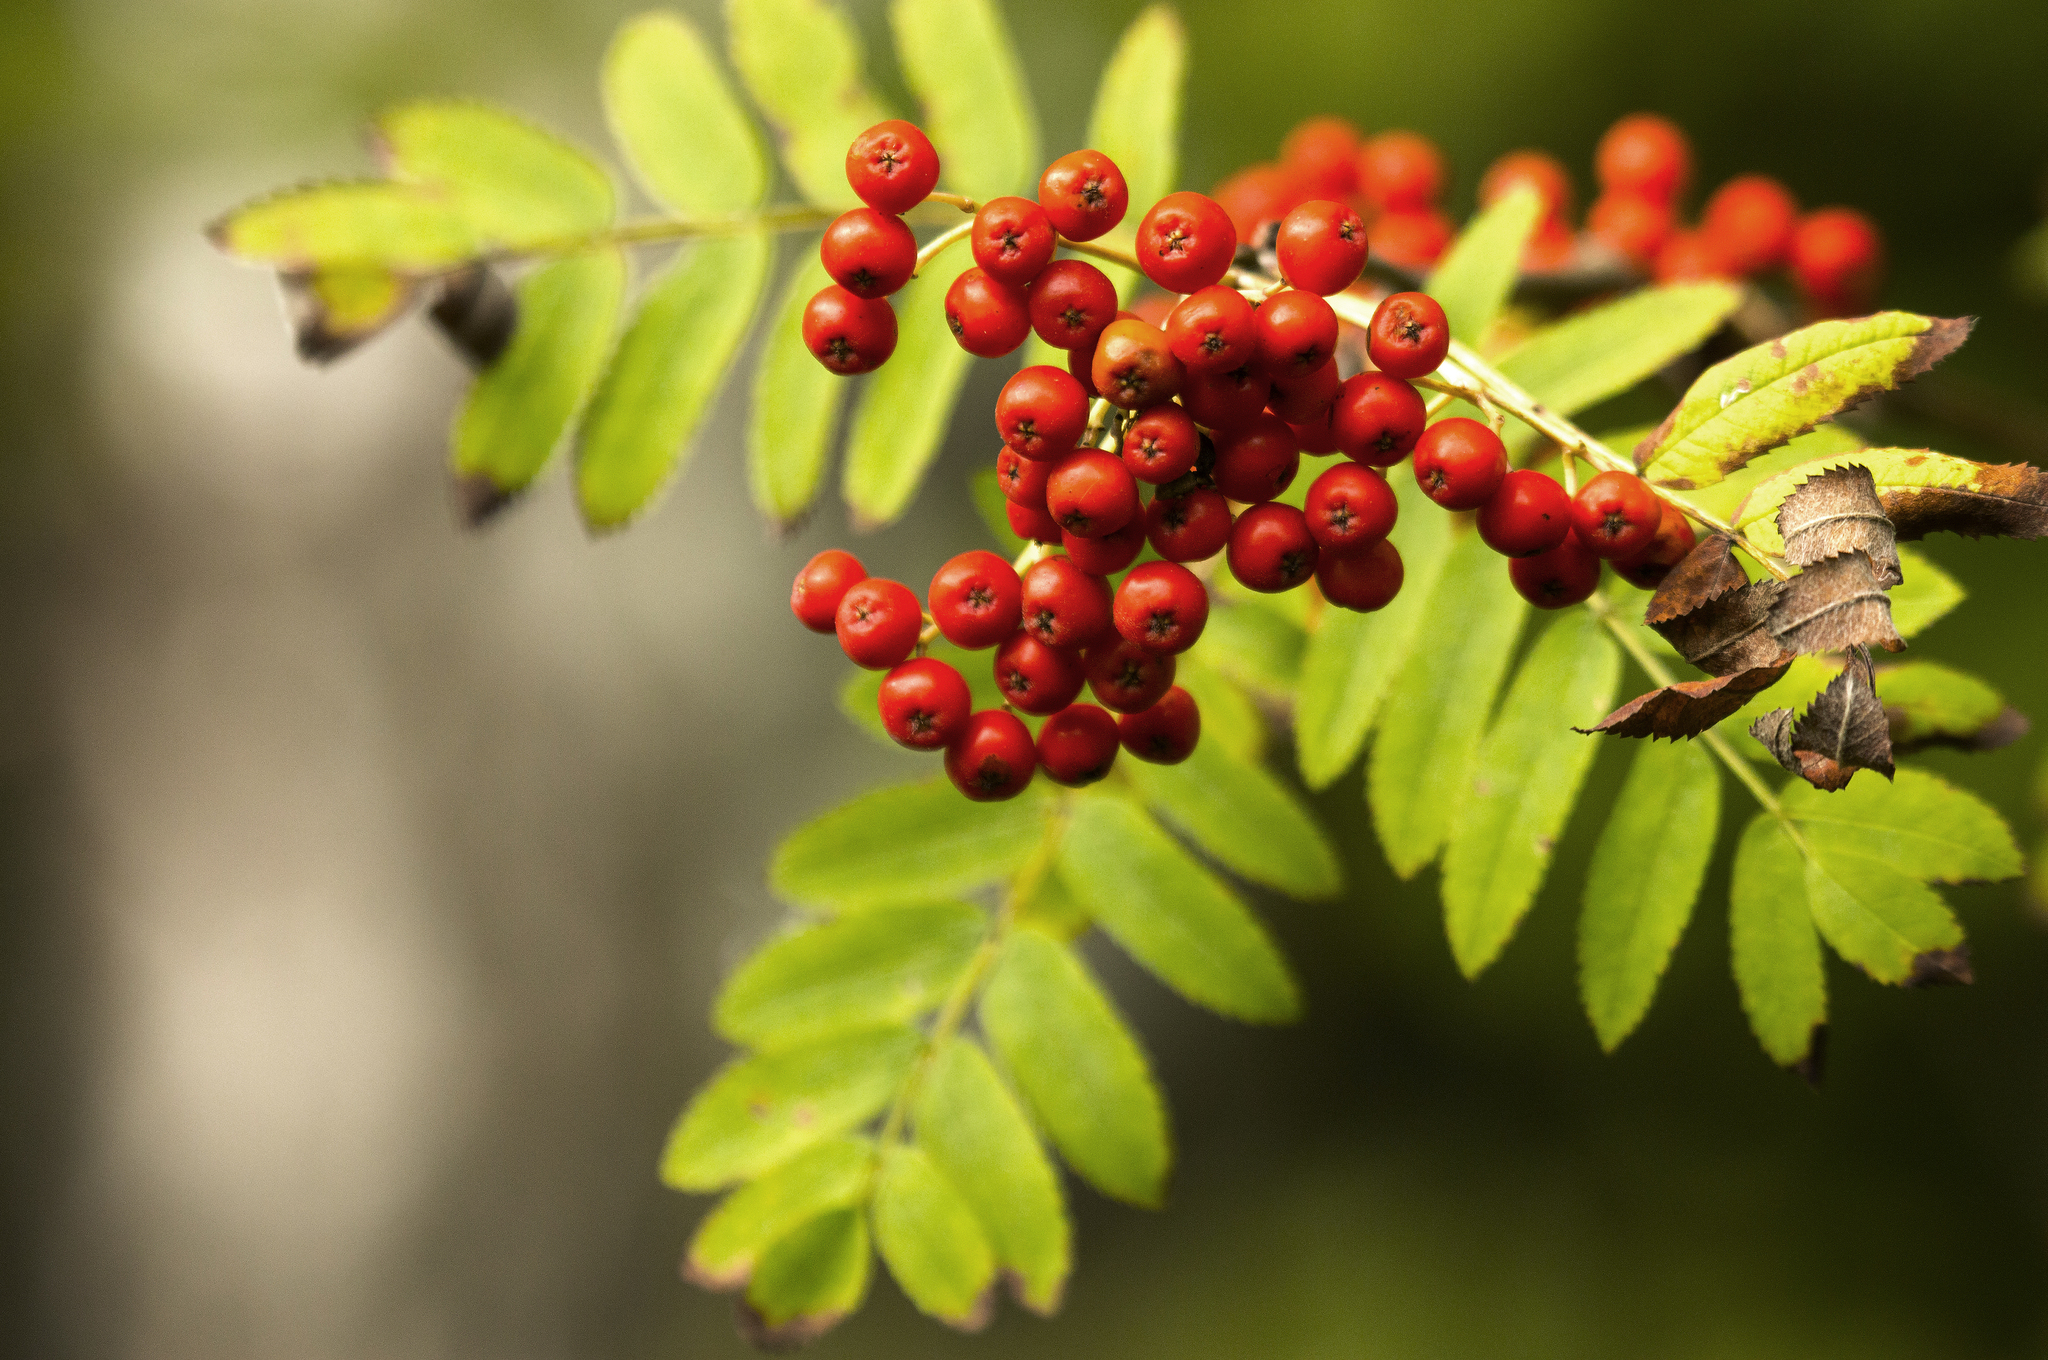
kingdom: Plantae
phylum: Tracheophyta
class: Magnoliopsida
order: Rosales
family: Rosaceae
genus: Sorbus
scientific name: Sorbus aucuparia
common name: Rowan
